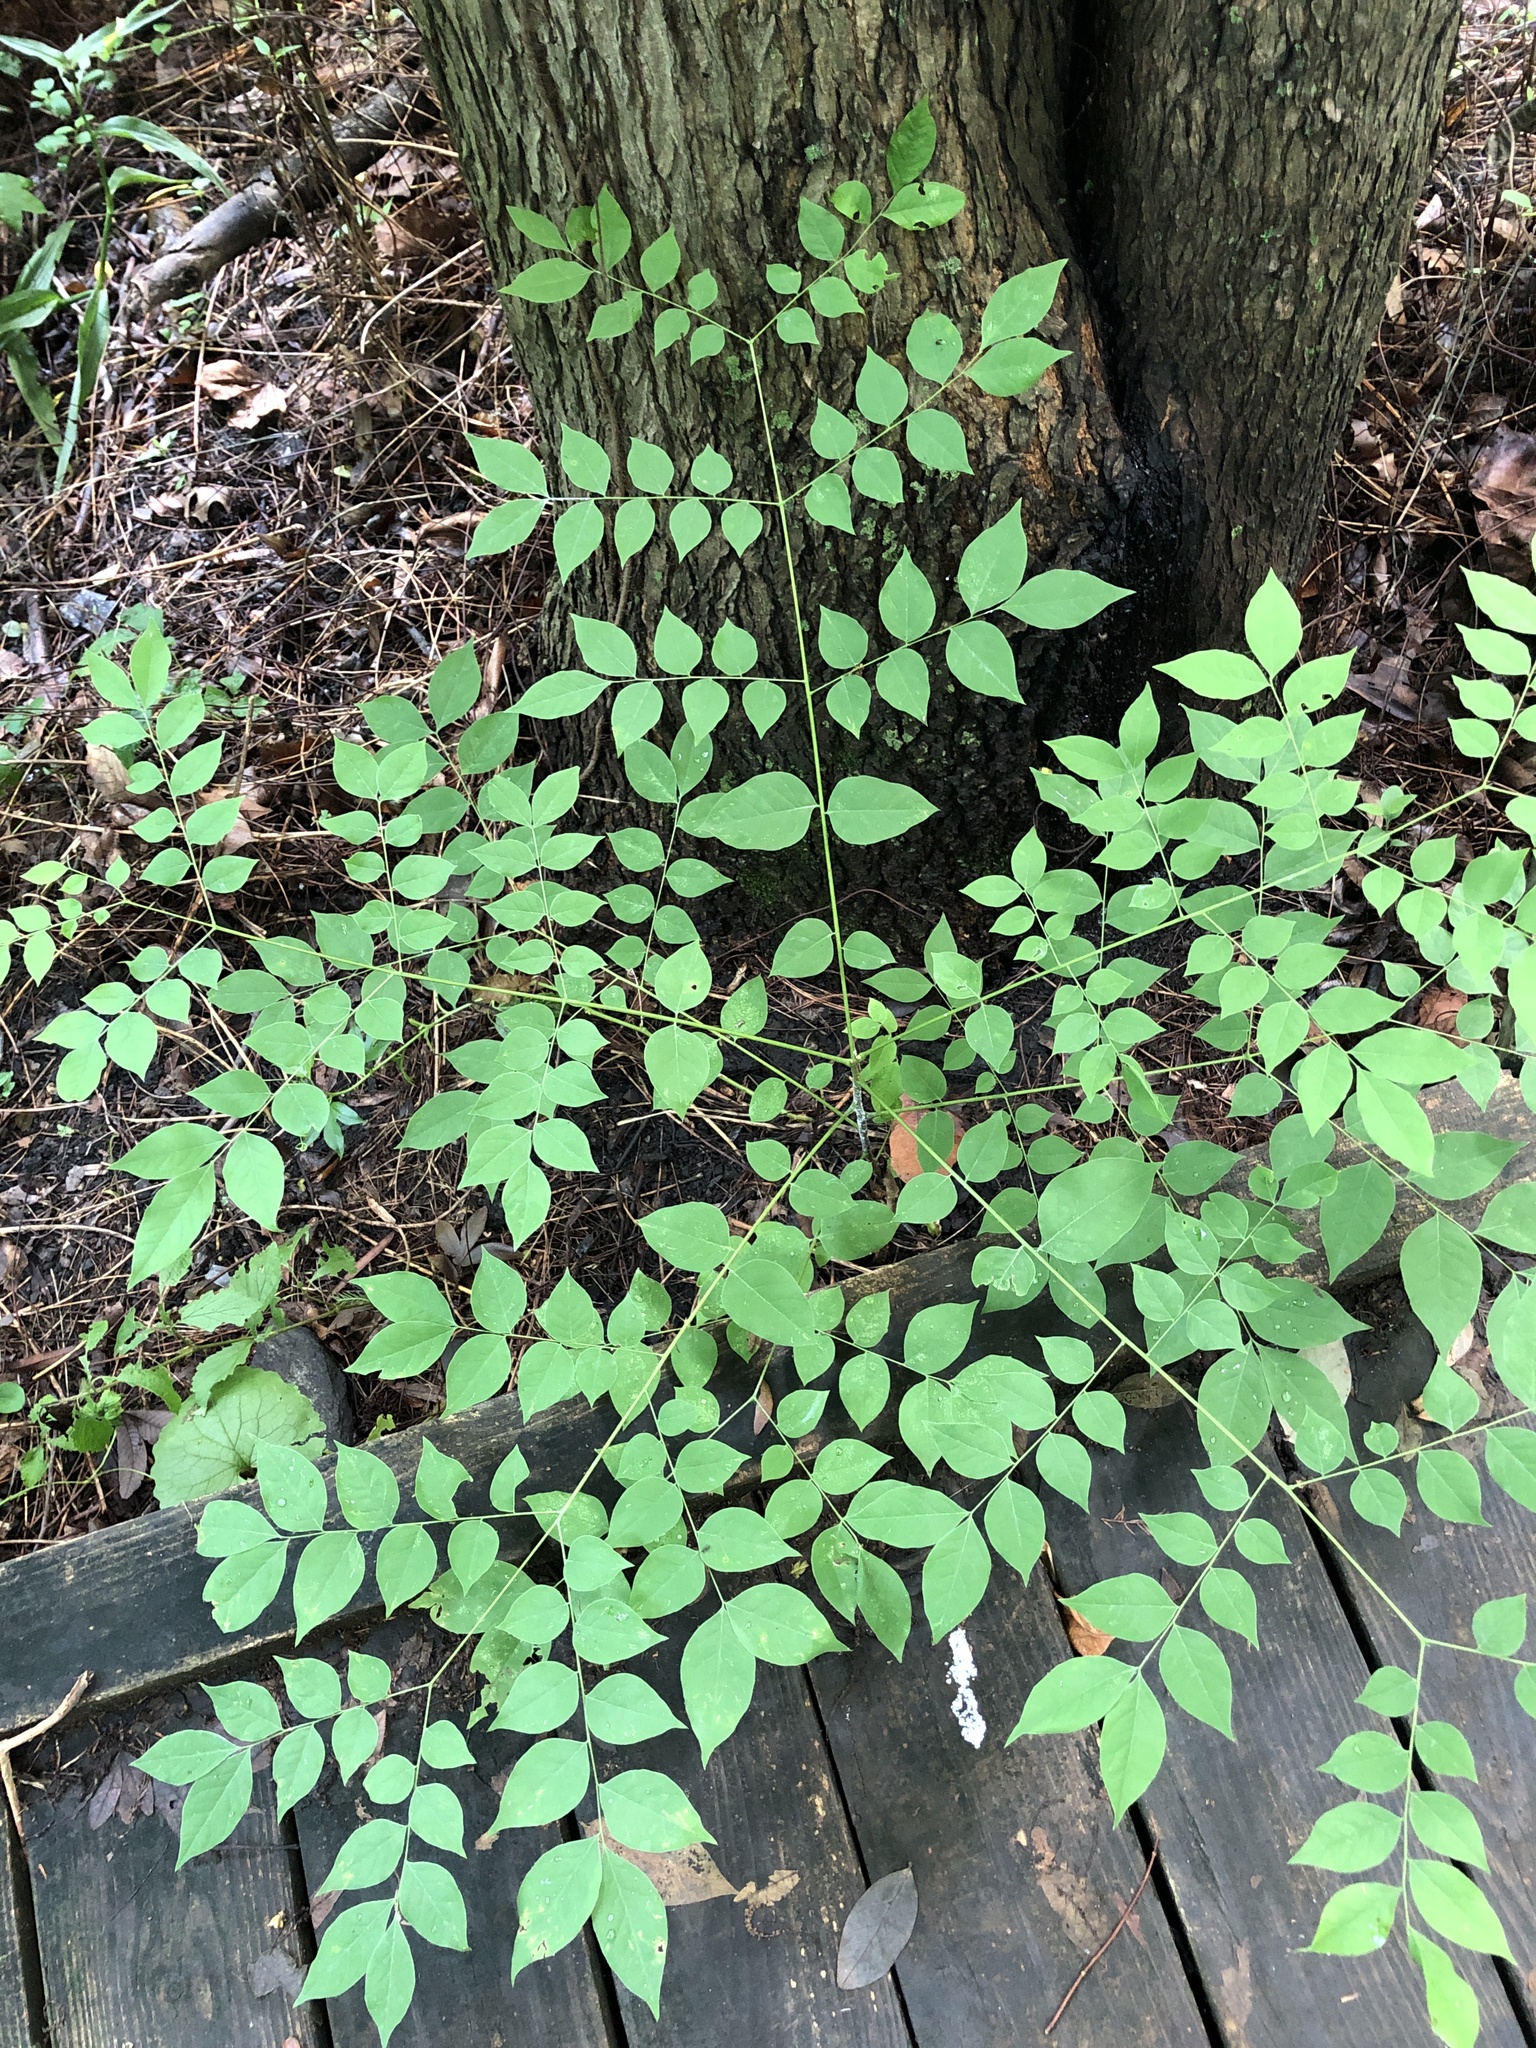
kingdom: Plantae
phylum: Tracheophyta
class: Magnoliopsida
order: Fabales
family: Fabaceae
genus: Gymnocladus
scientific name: Gymnocladus dioicus
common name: Kentucky coffee-tree
